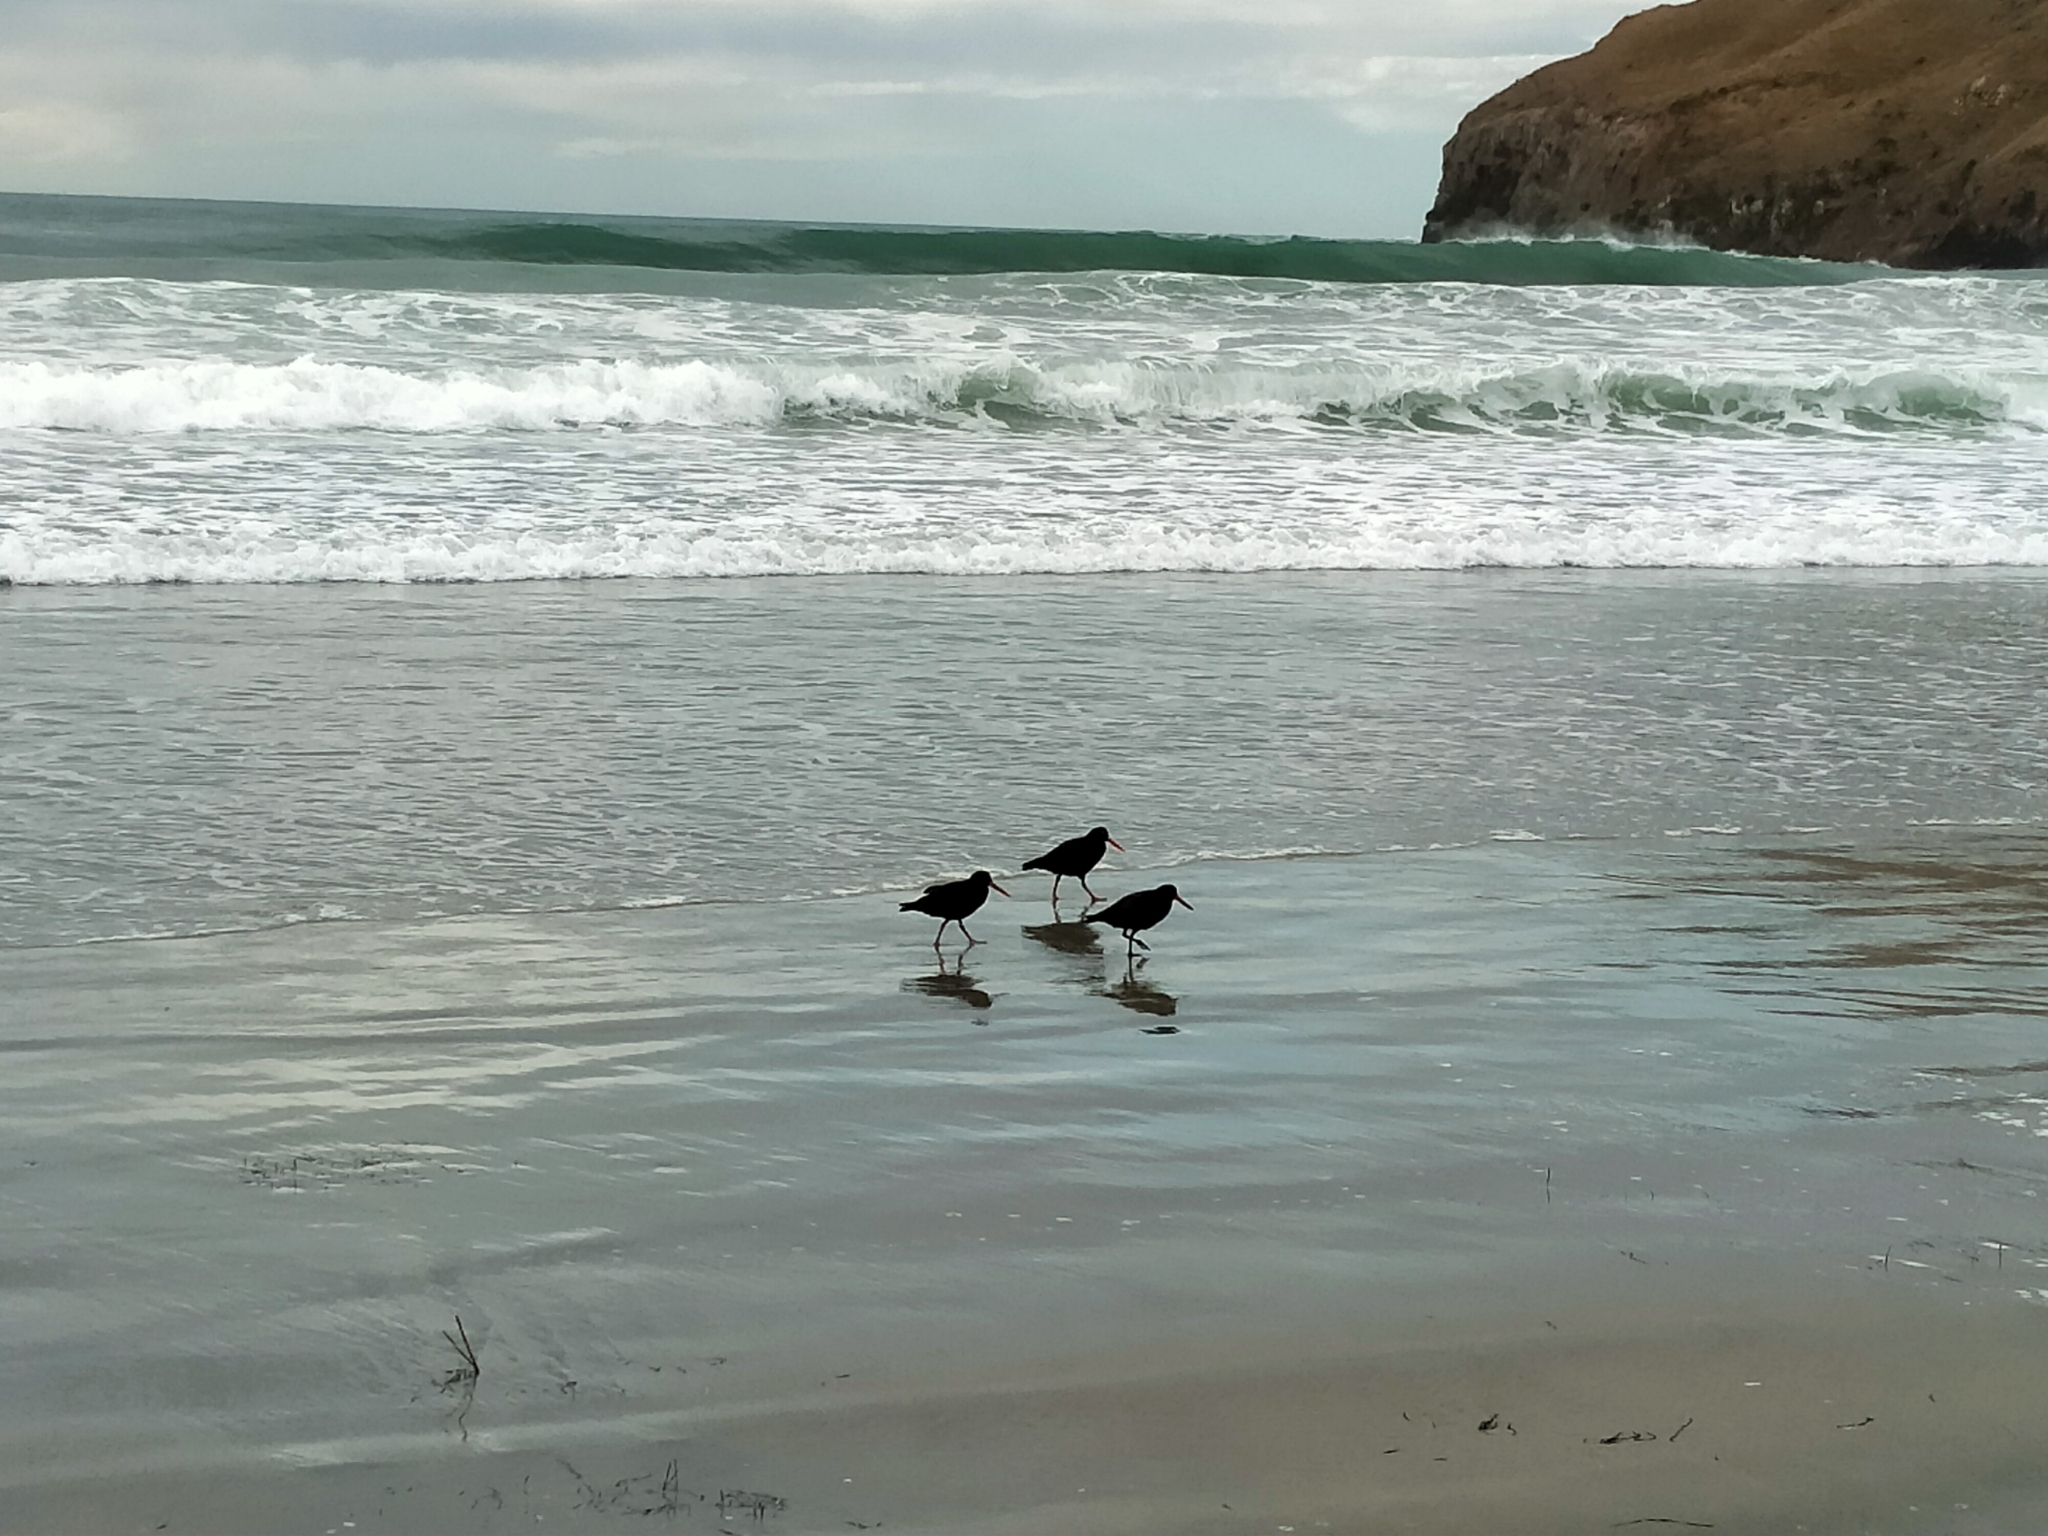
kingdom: Animalia
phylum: Chordata
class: Aves
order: Charadriiformes
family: Haematopodidae
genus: Haematopus
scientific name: Haematopus unicolor
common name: Variable oystercatcher
